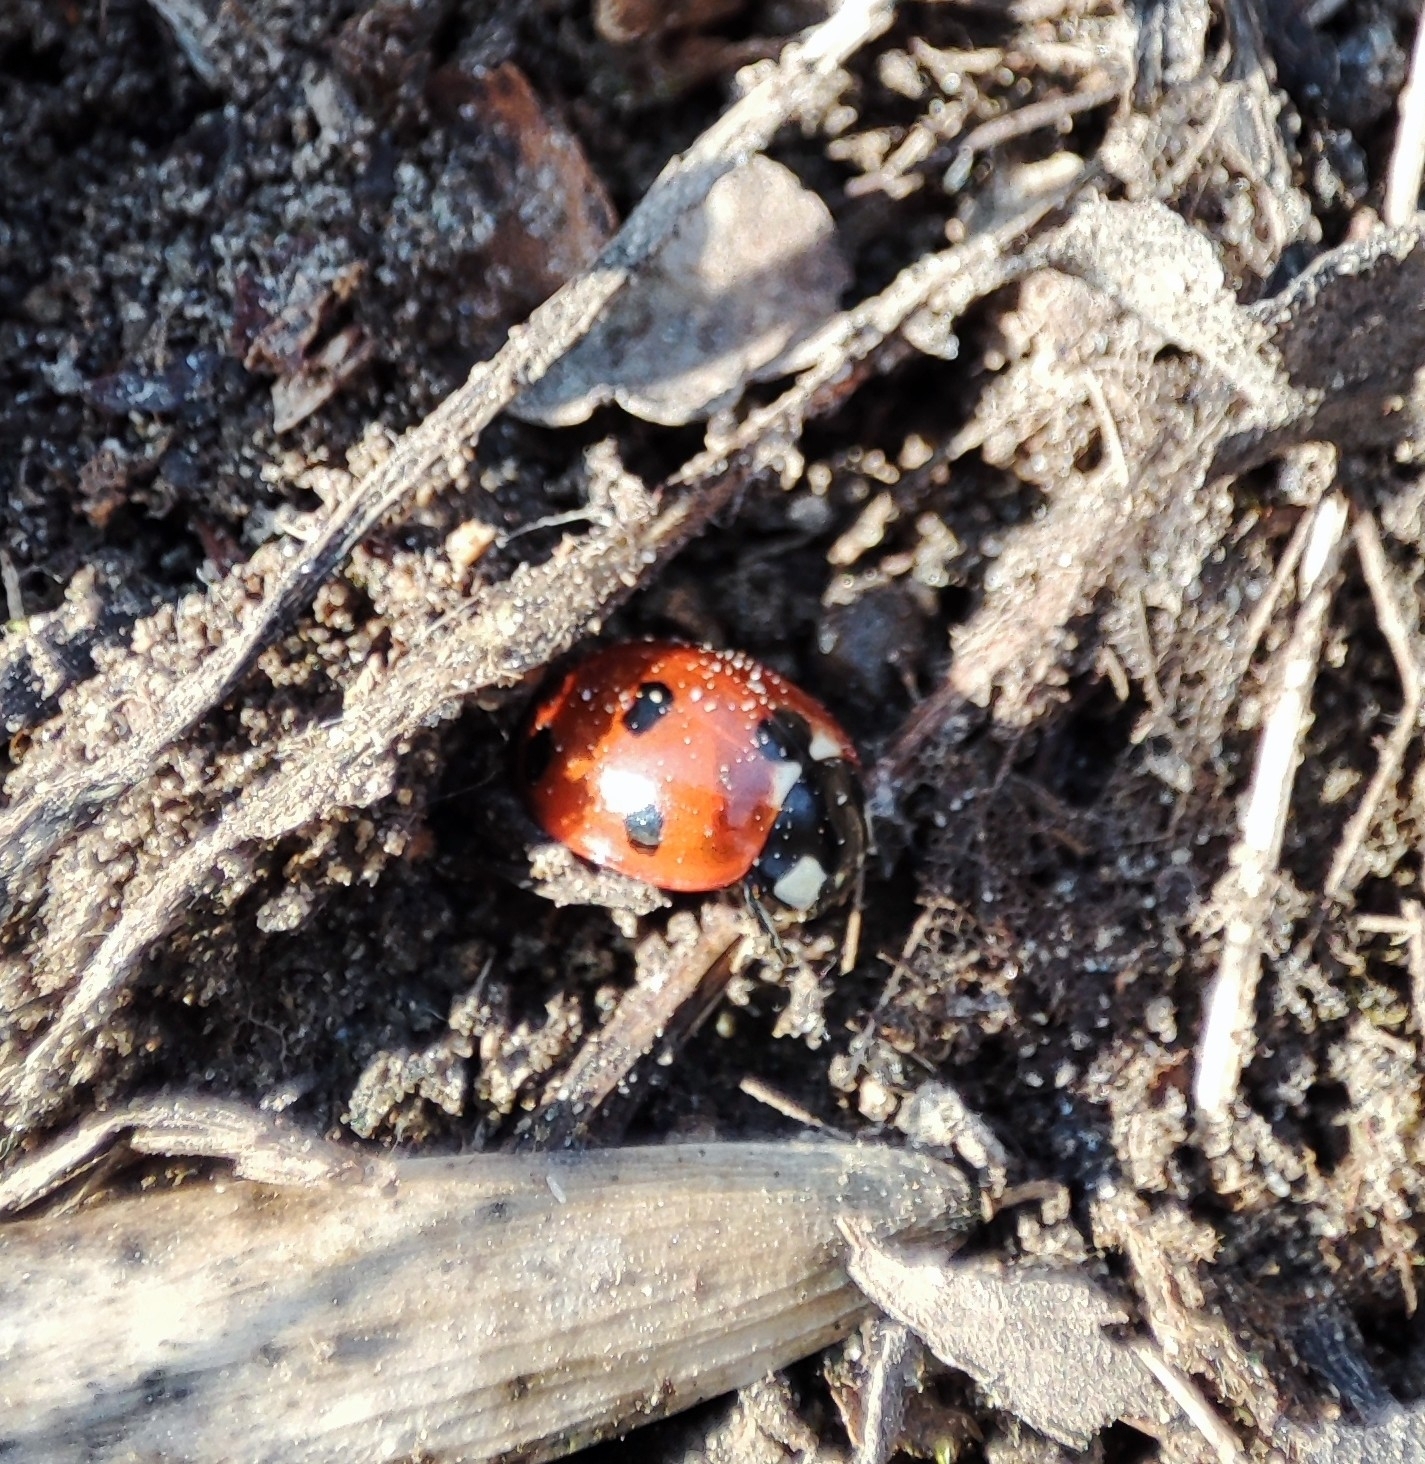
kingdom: Animalia
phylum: Arthropoda
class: Insecta
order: Coleoptera
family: Coccinellidae
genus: Coccinella
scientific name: Coccinella septempunctata
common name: Sevenspotted lady beetle
